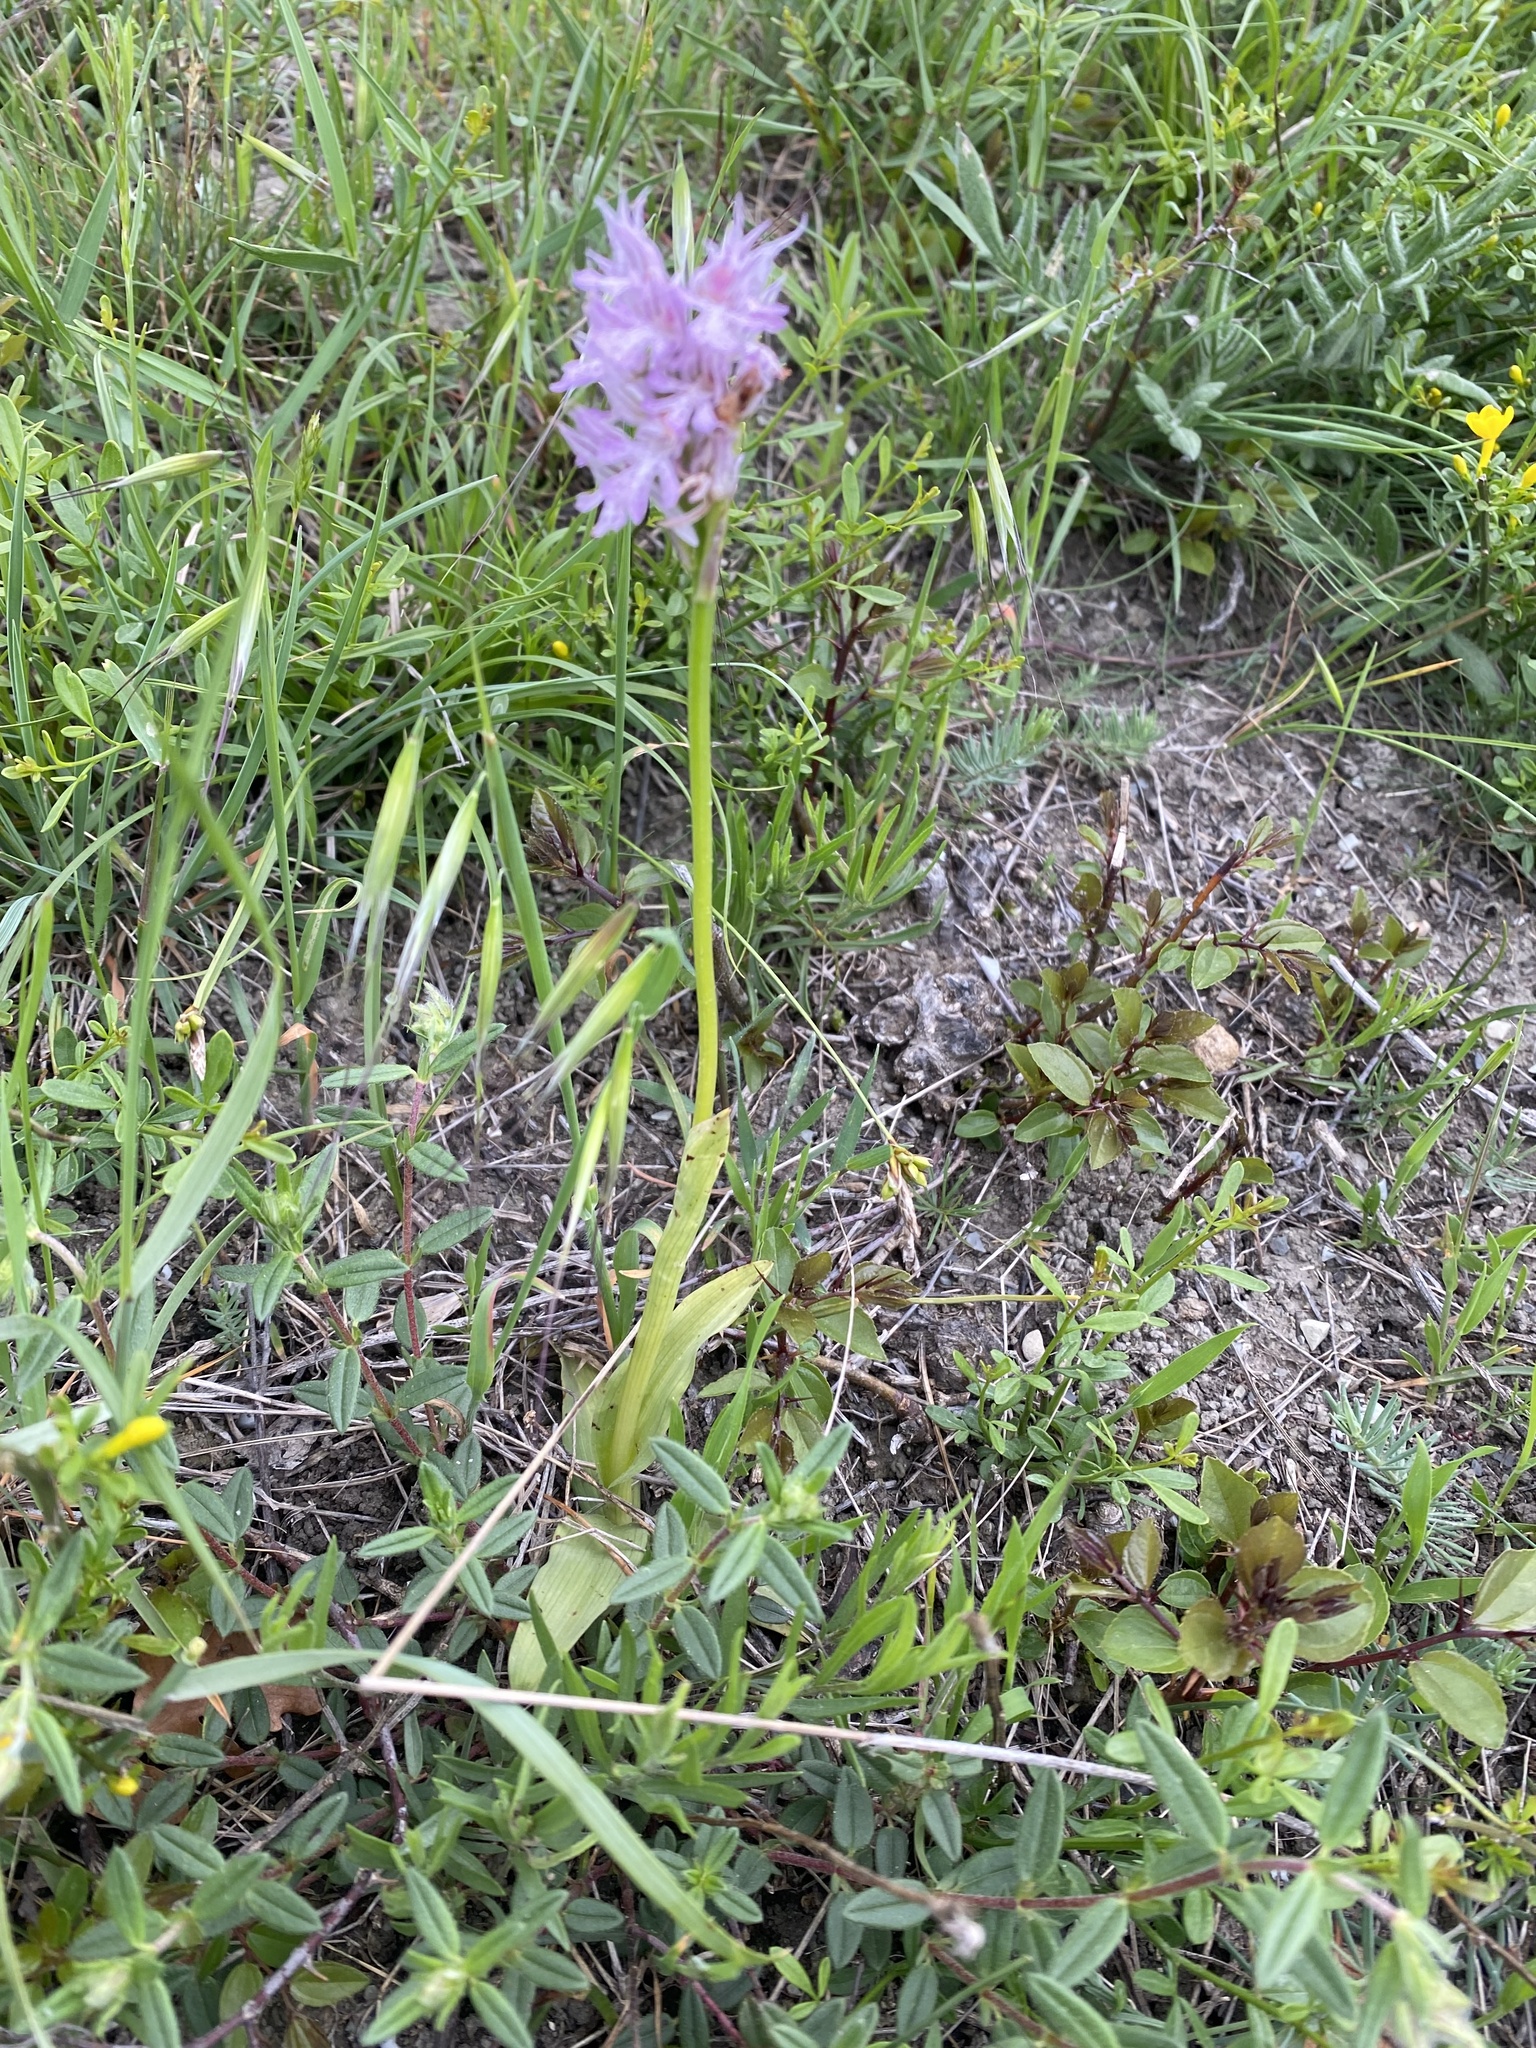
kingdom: Plantae
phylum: Tracheophyta
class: Liliopsida
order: Asparagales
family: Orchidaceae
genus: Neotinea
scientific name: Neotinea tridentata
